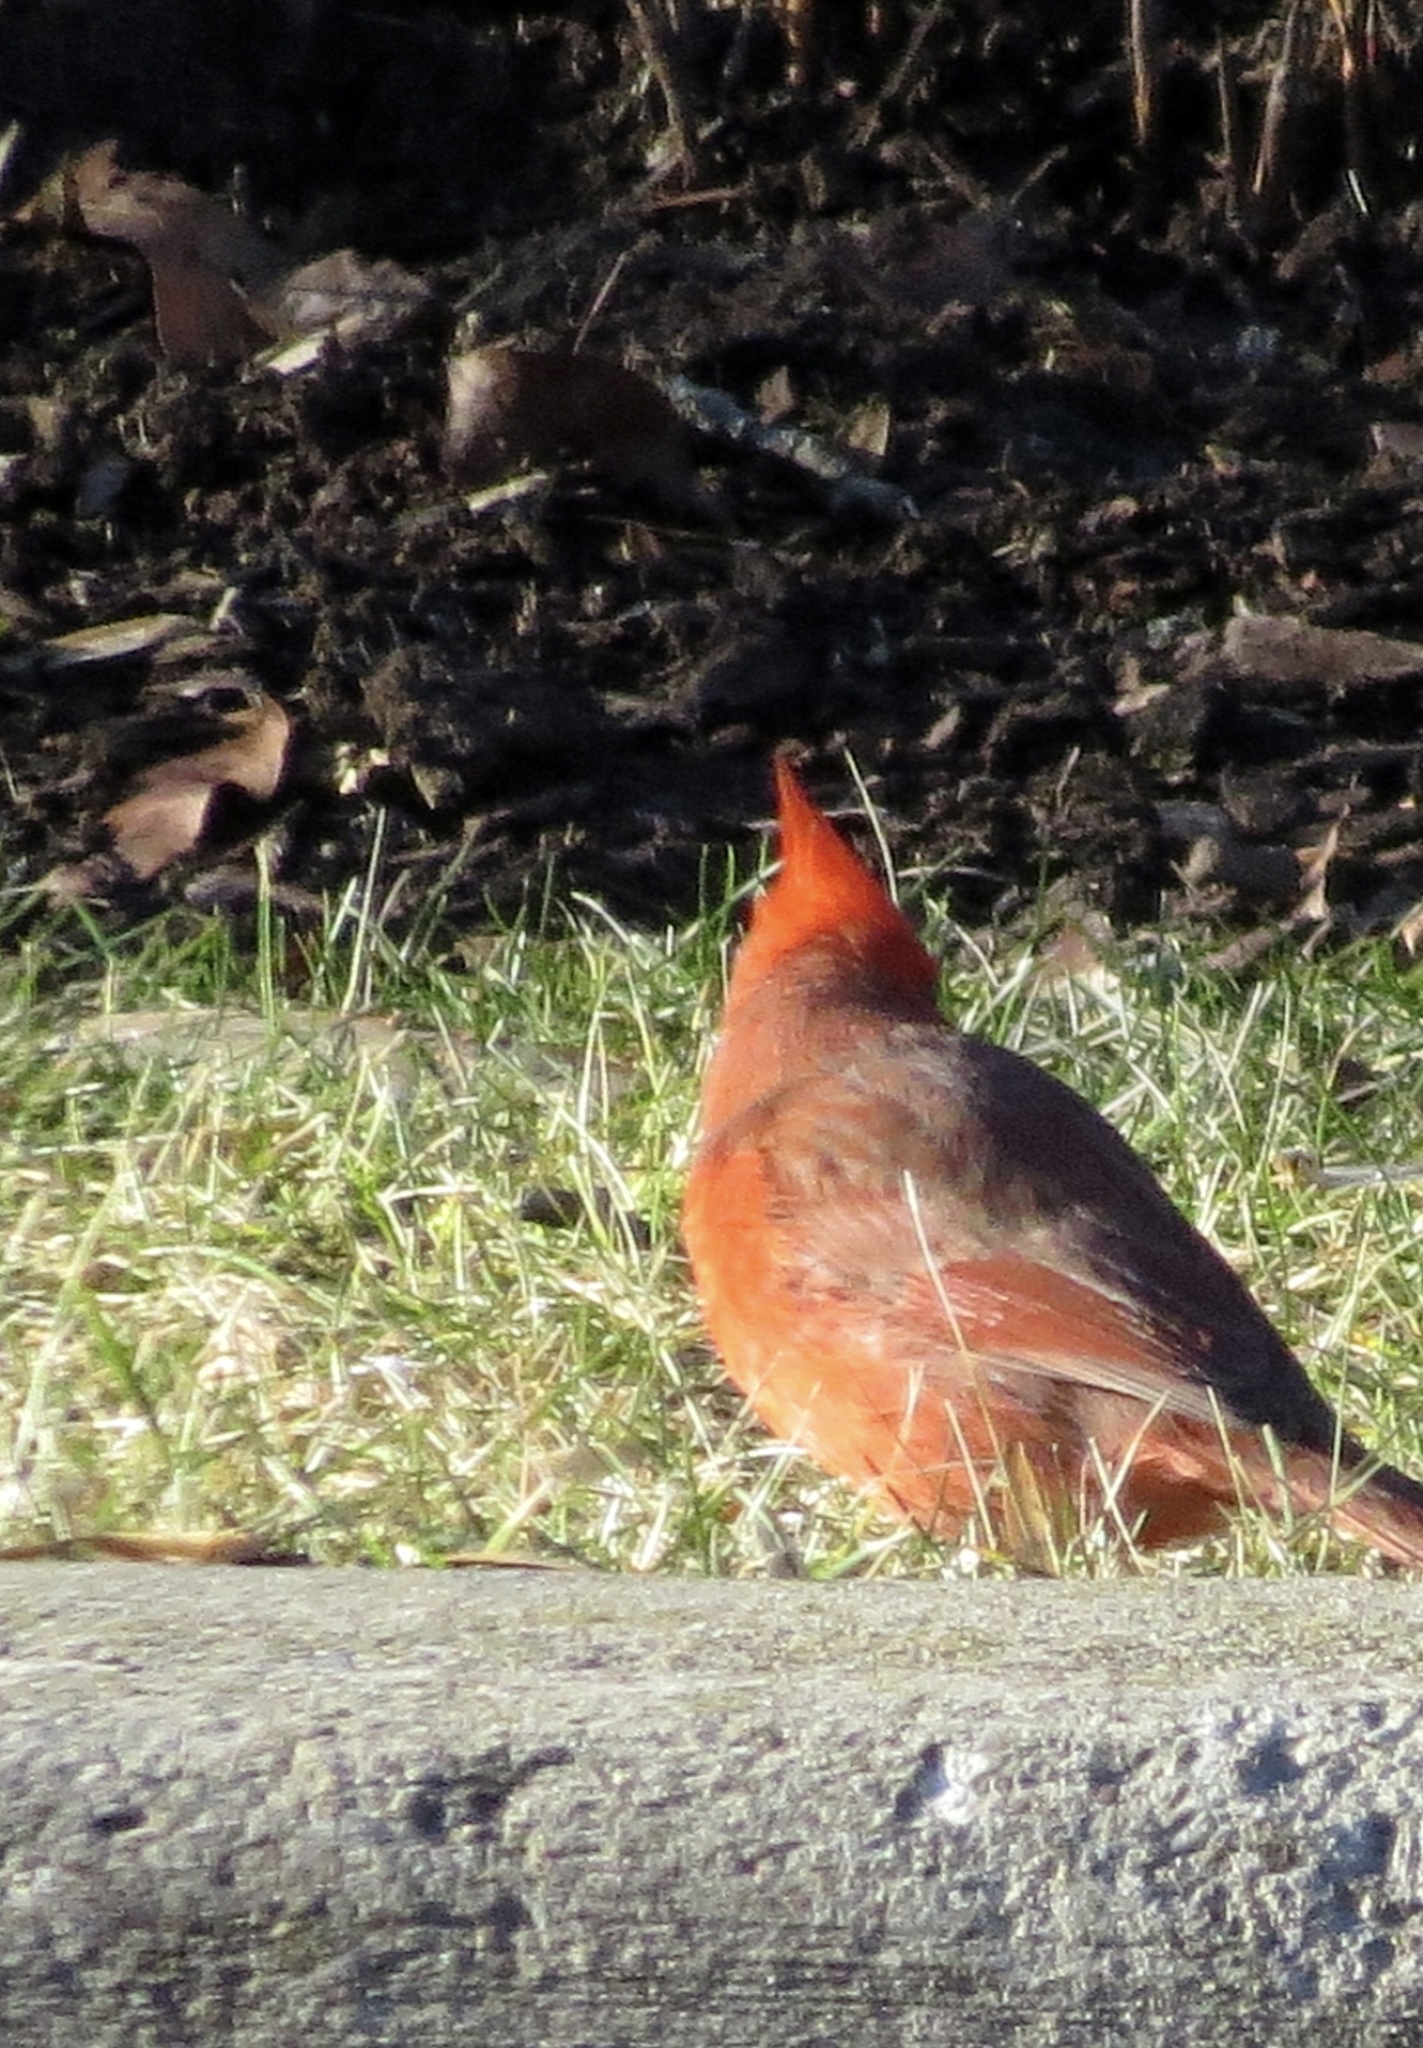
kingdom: Animalia
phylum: Chordata
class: Aves
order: Passeriformes
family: Cardinalidae
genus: Cardinalis
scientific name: Cardinalis cardinalis
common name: Northern cardinal
